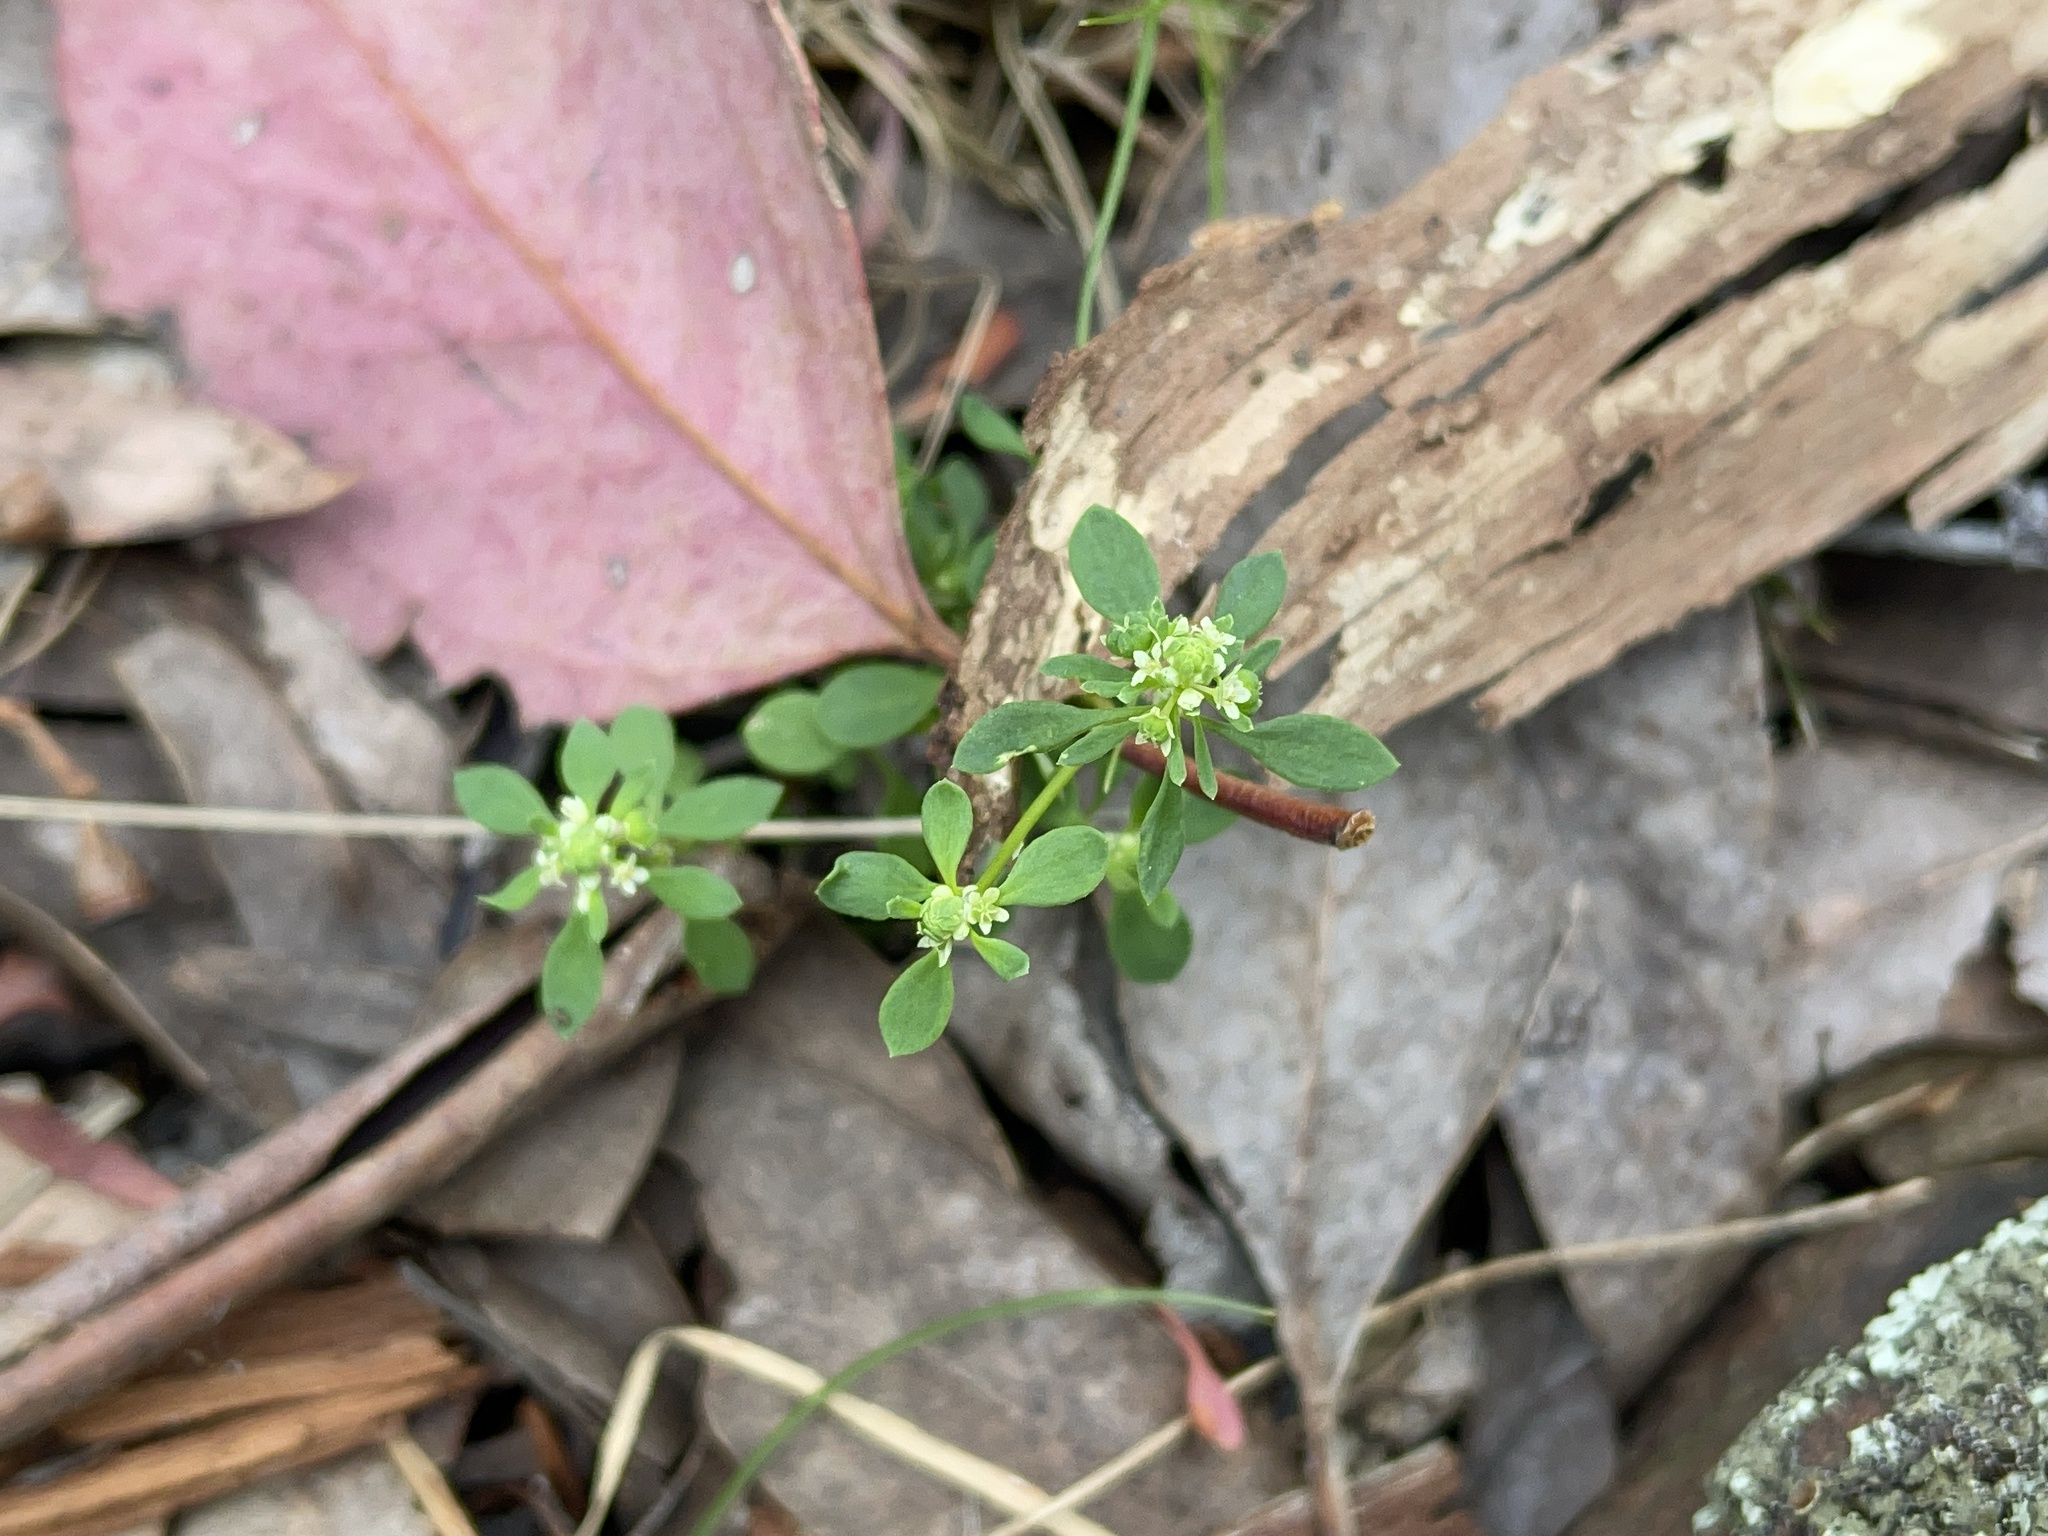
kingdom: Plantae
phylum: Tracheophyta
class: Magnoliopsida
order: Malpighiales
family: Phyllanthaceae
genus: Poranthera
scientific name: Poranthera microphylla
